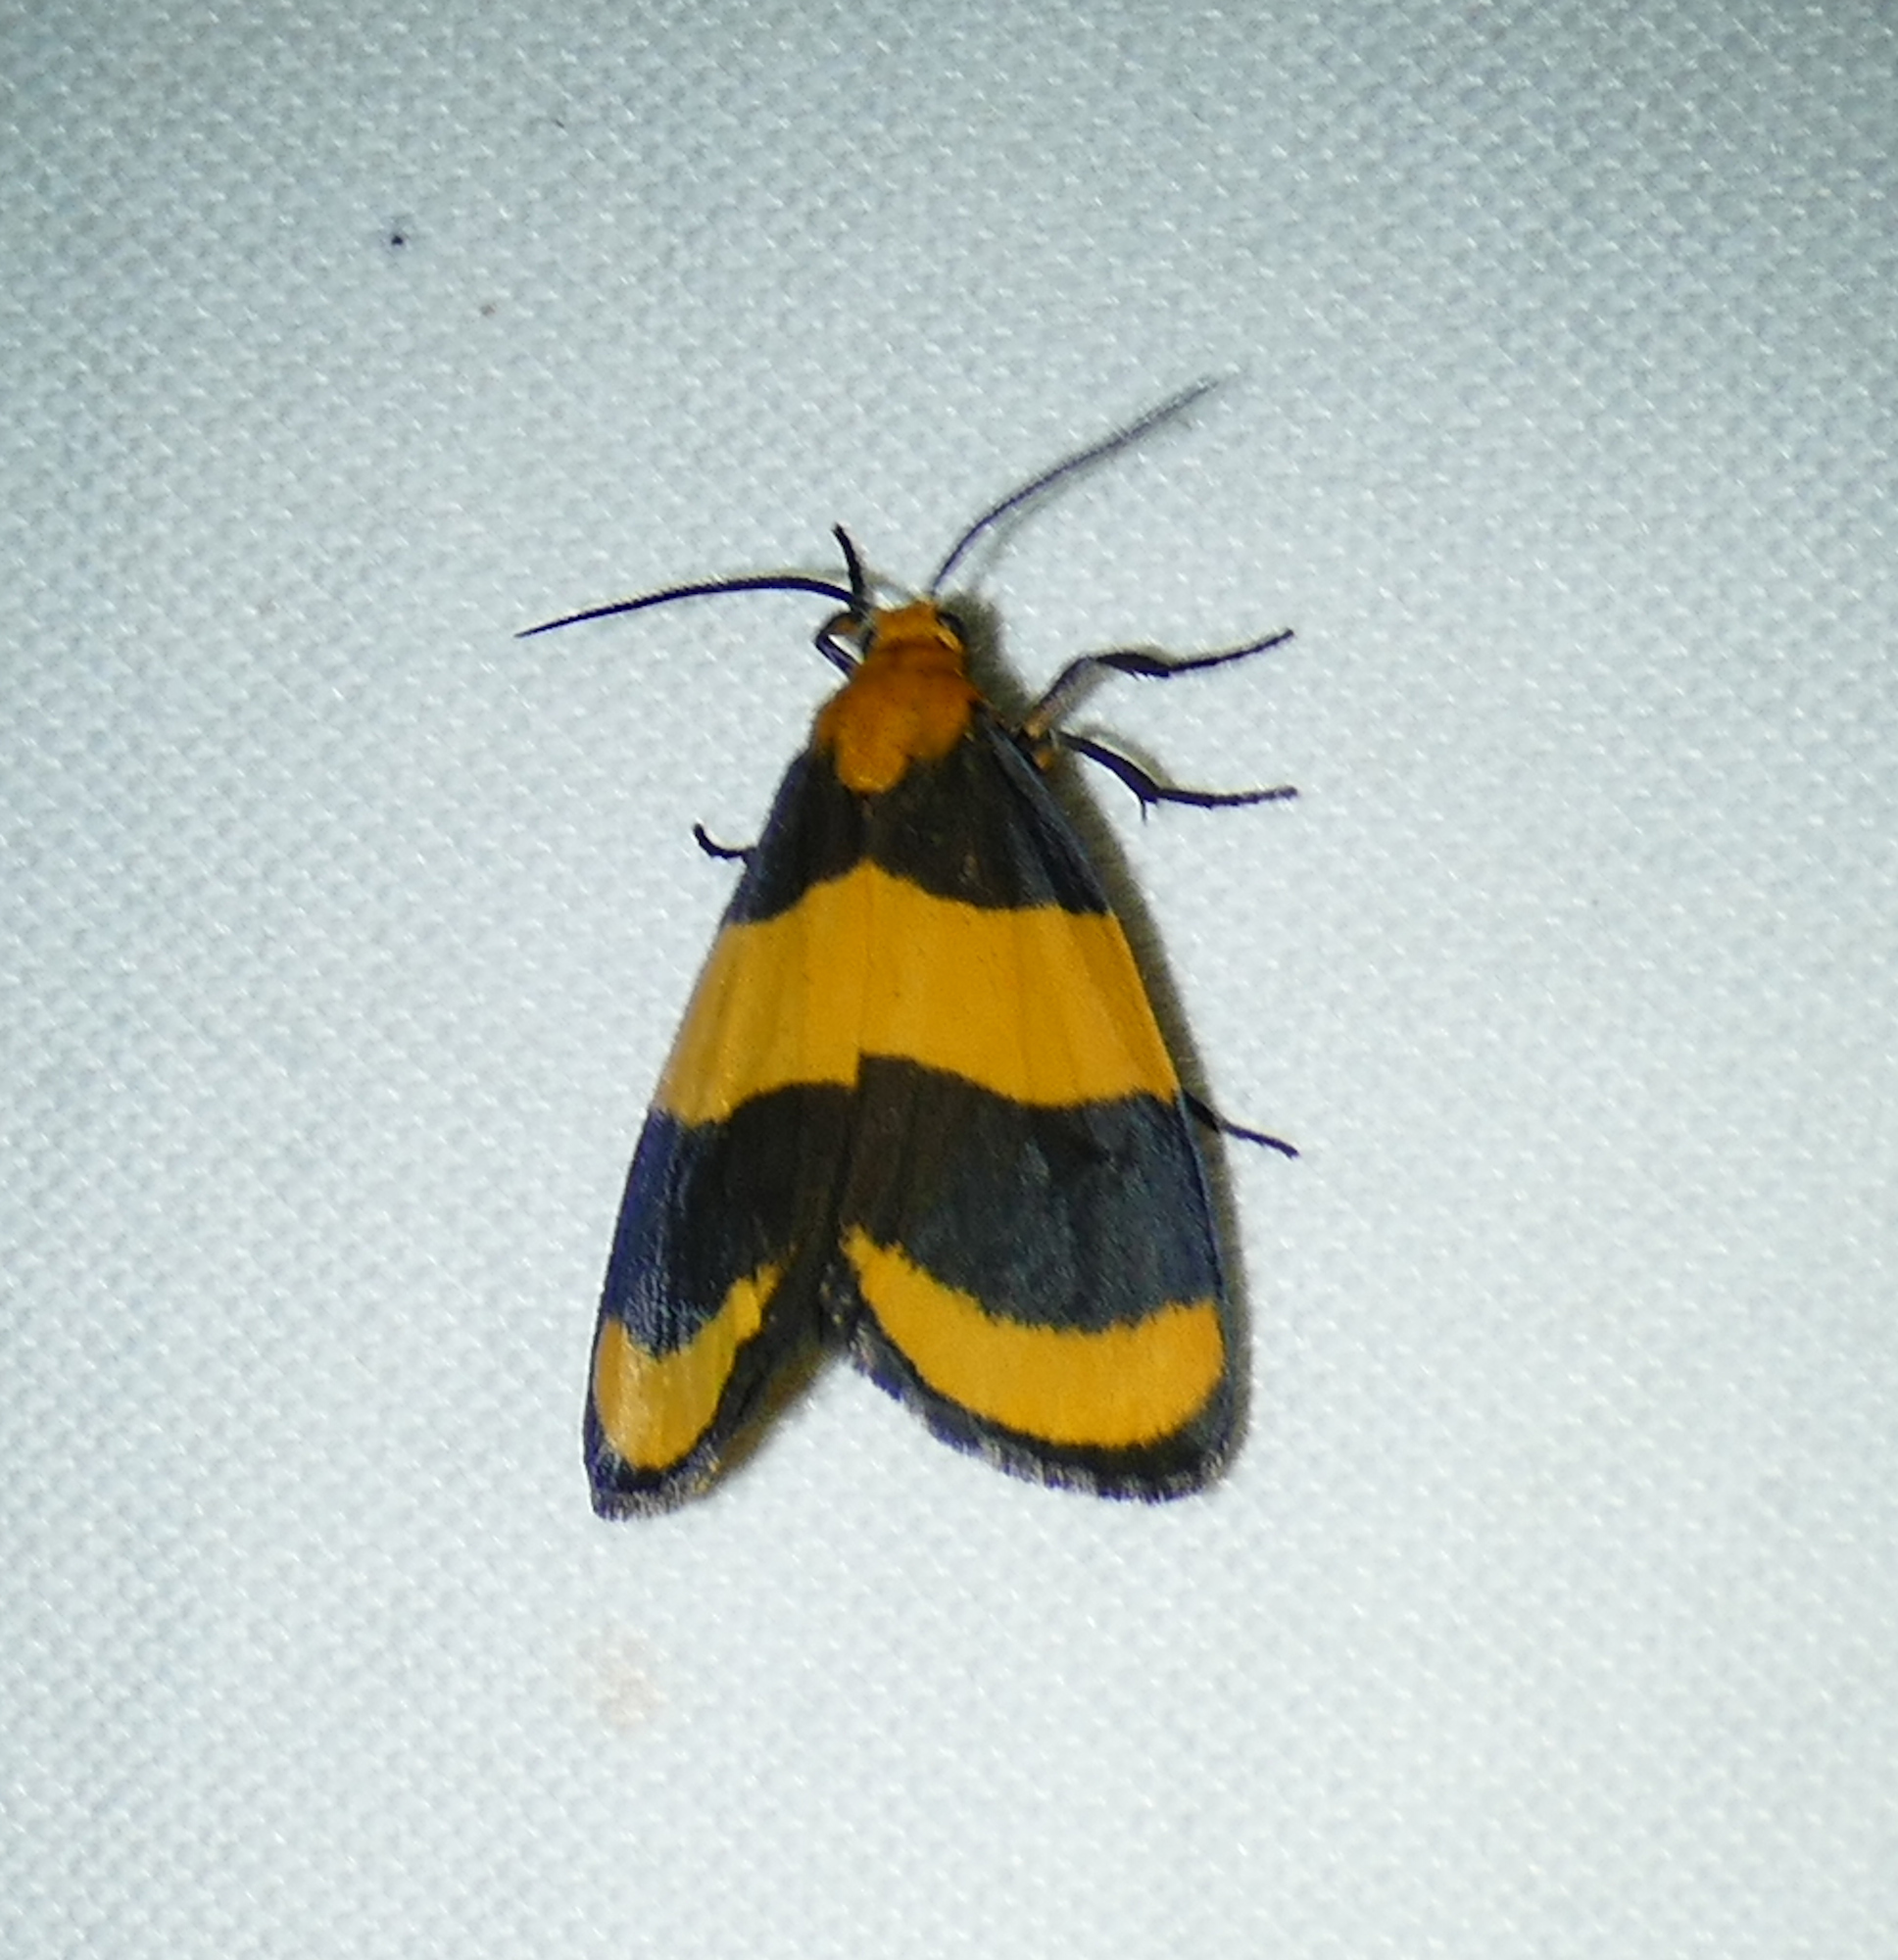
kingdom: Animalia
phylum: Arthropoda
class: Insecta
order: Lepidoptera
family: Erebidae
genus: Eudesmia
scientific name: Eudesmia arida
